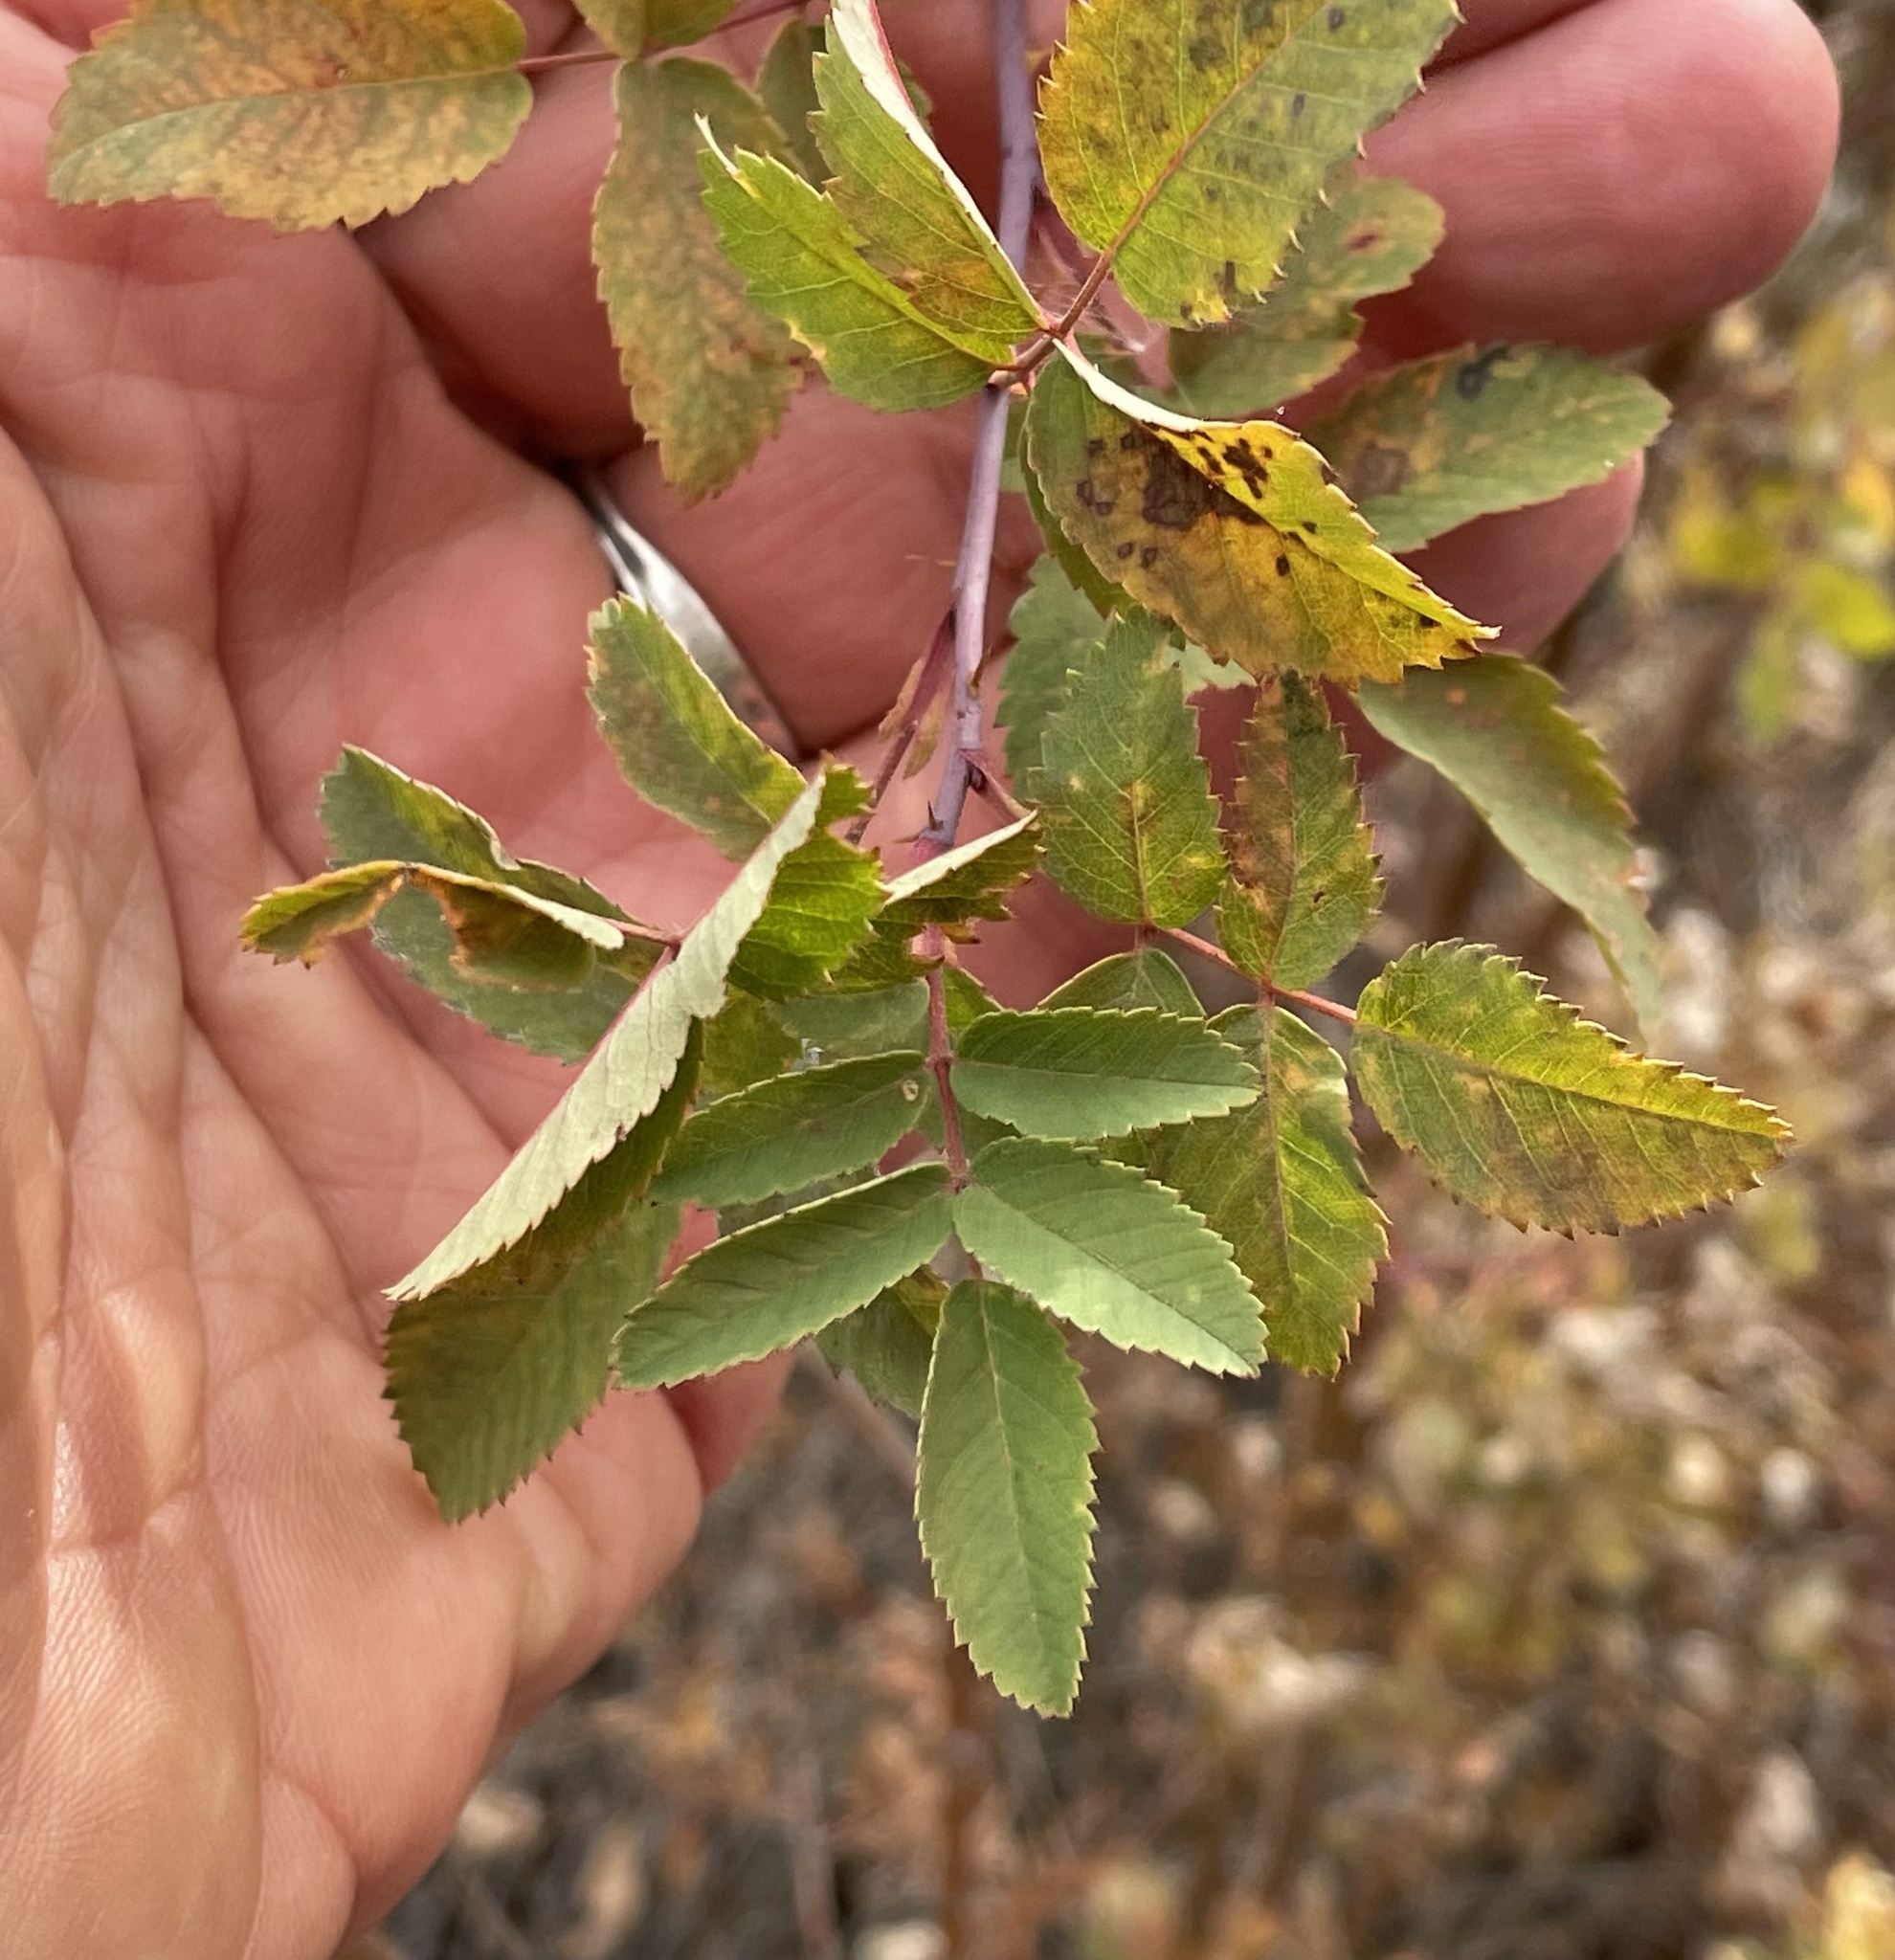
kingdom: Plantae
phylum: Tracheophyta
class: Magnoliopsida
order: Rosales
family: Rosaceae
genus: Rosa
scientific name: Rosa woodsii
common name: Woods's rose
